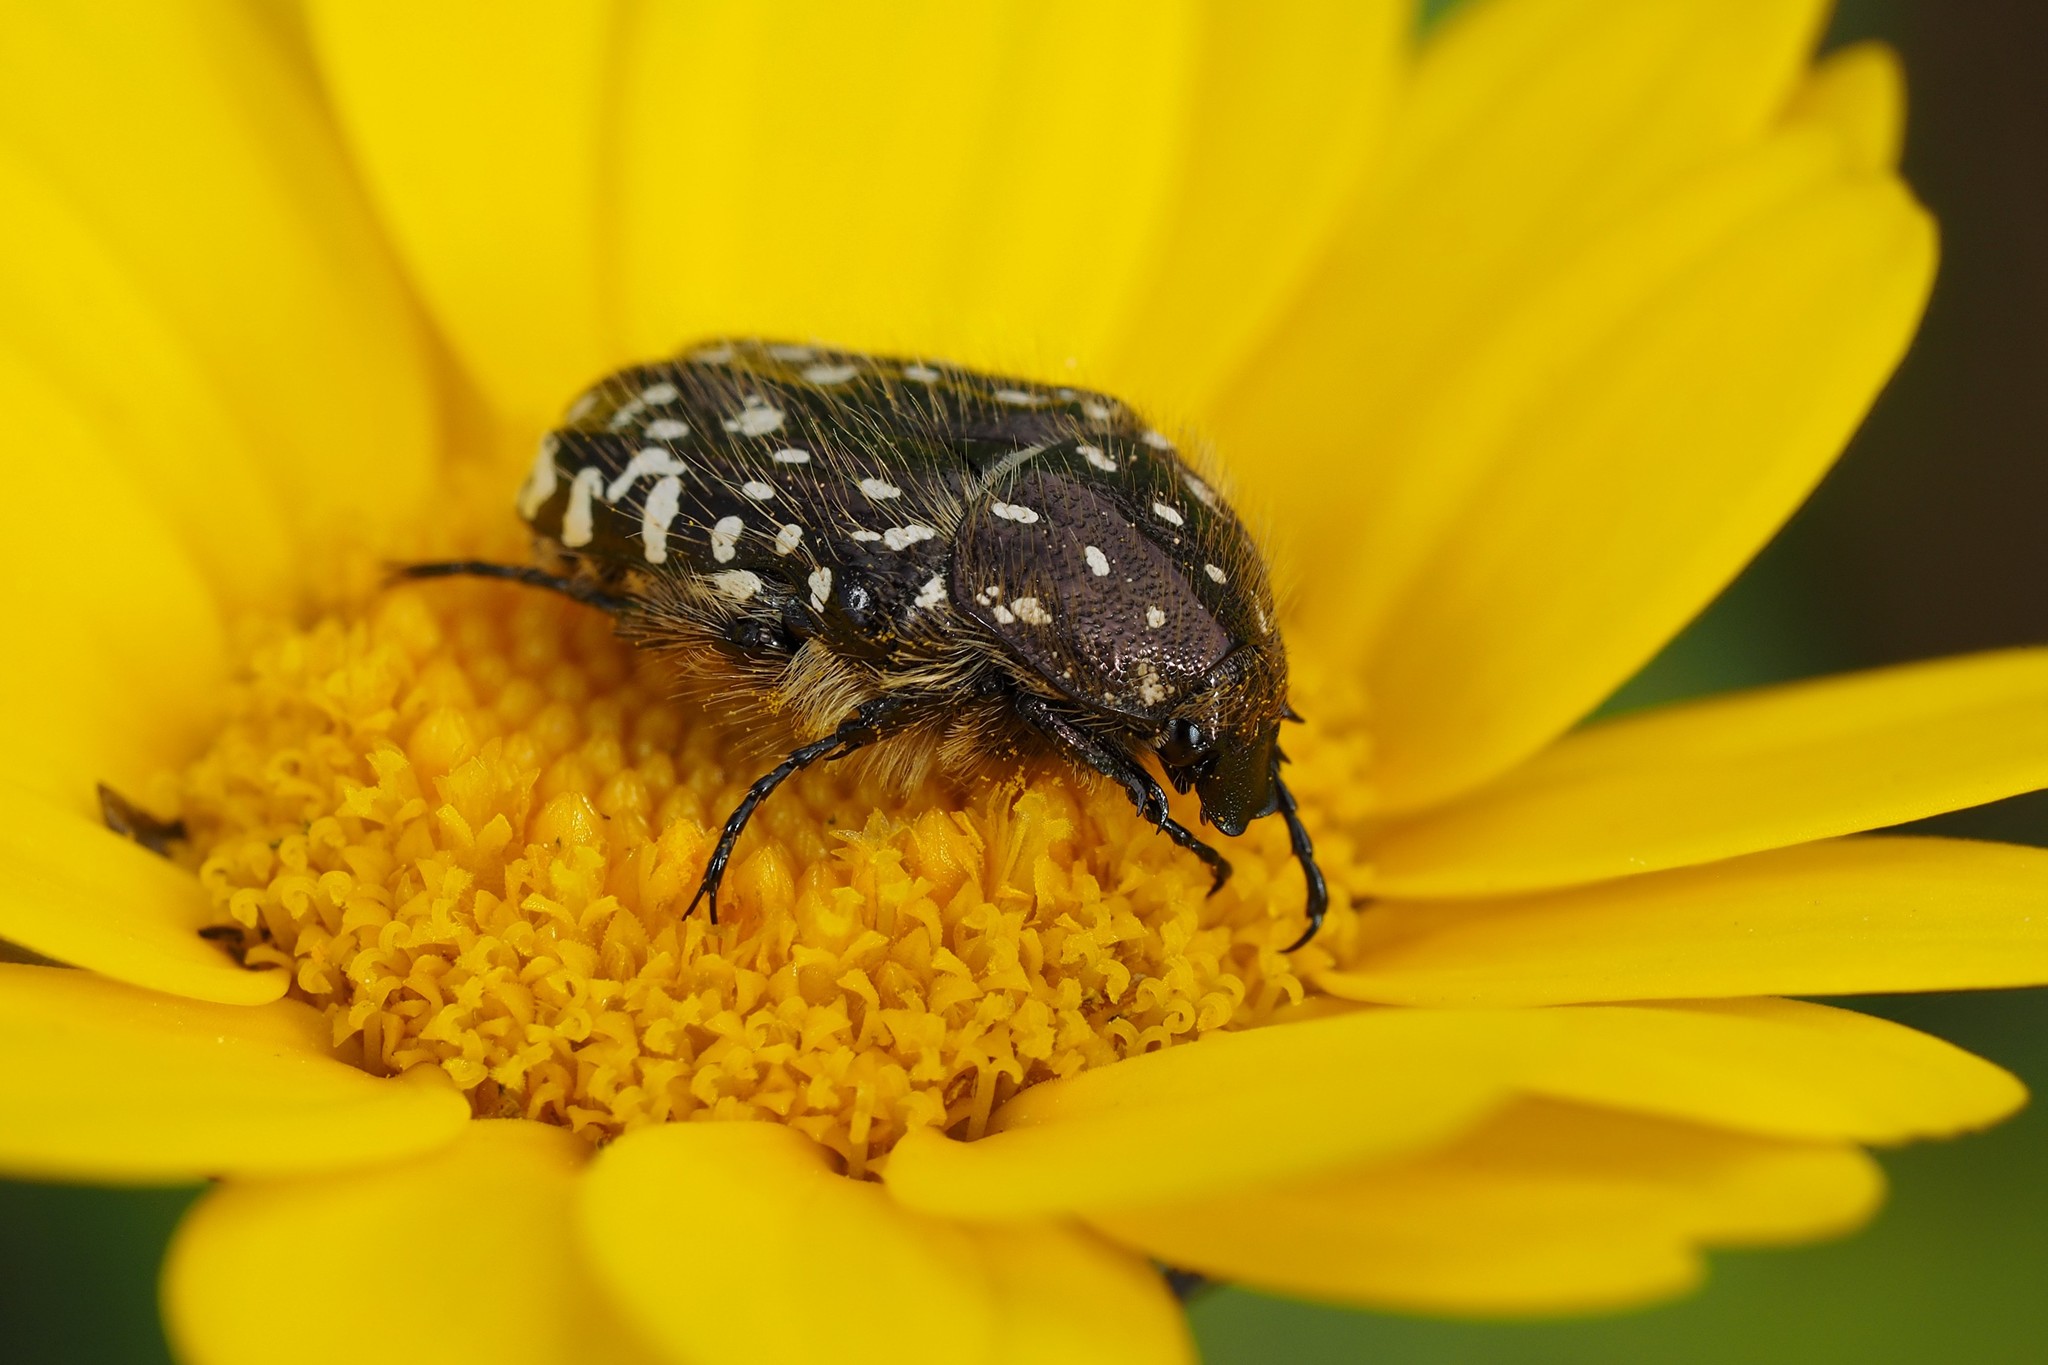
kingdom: Animalia
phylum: Arthropoda
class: Insecta
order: Coleoptera
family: Scarabaeidae
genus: Oxythyrea
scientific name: Oxythyrea funesta
